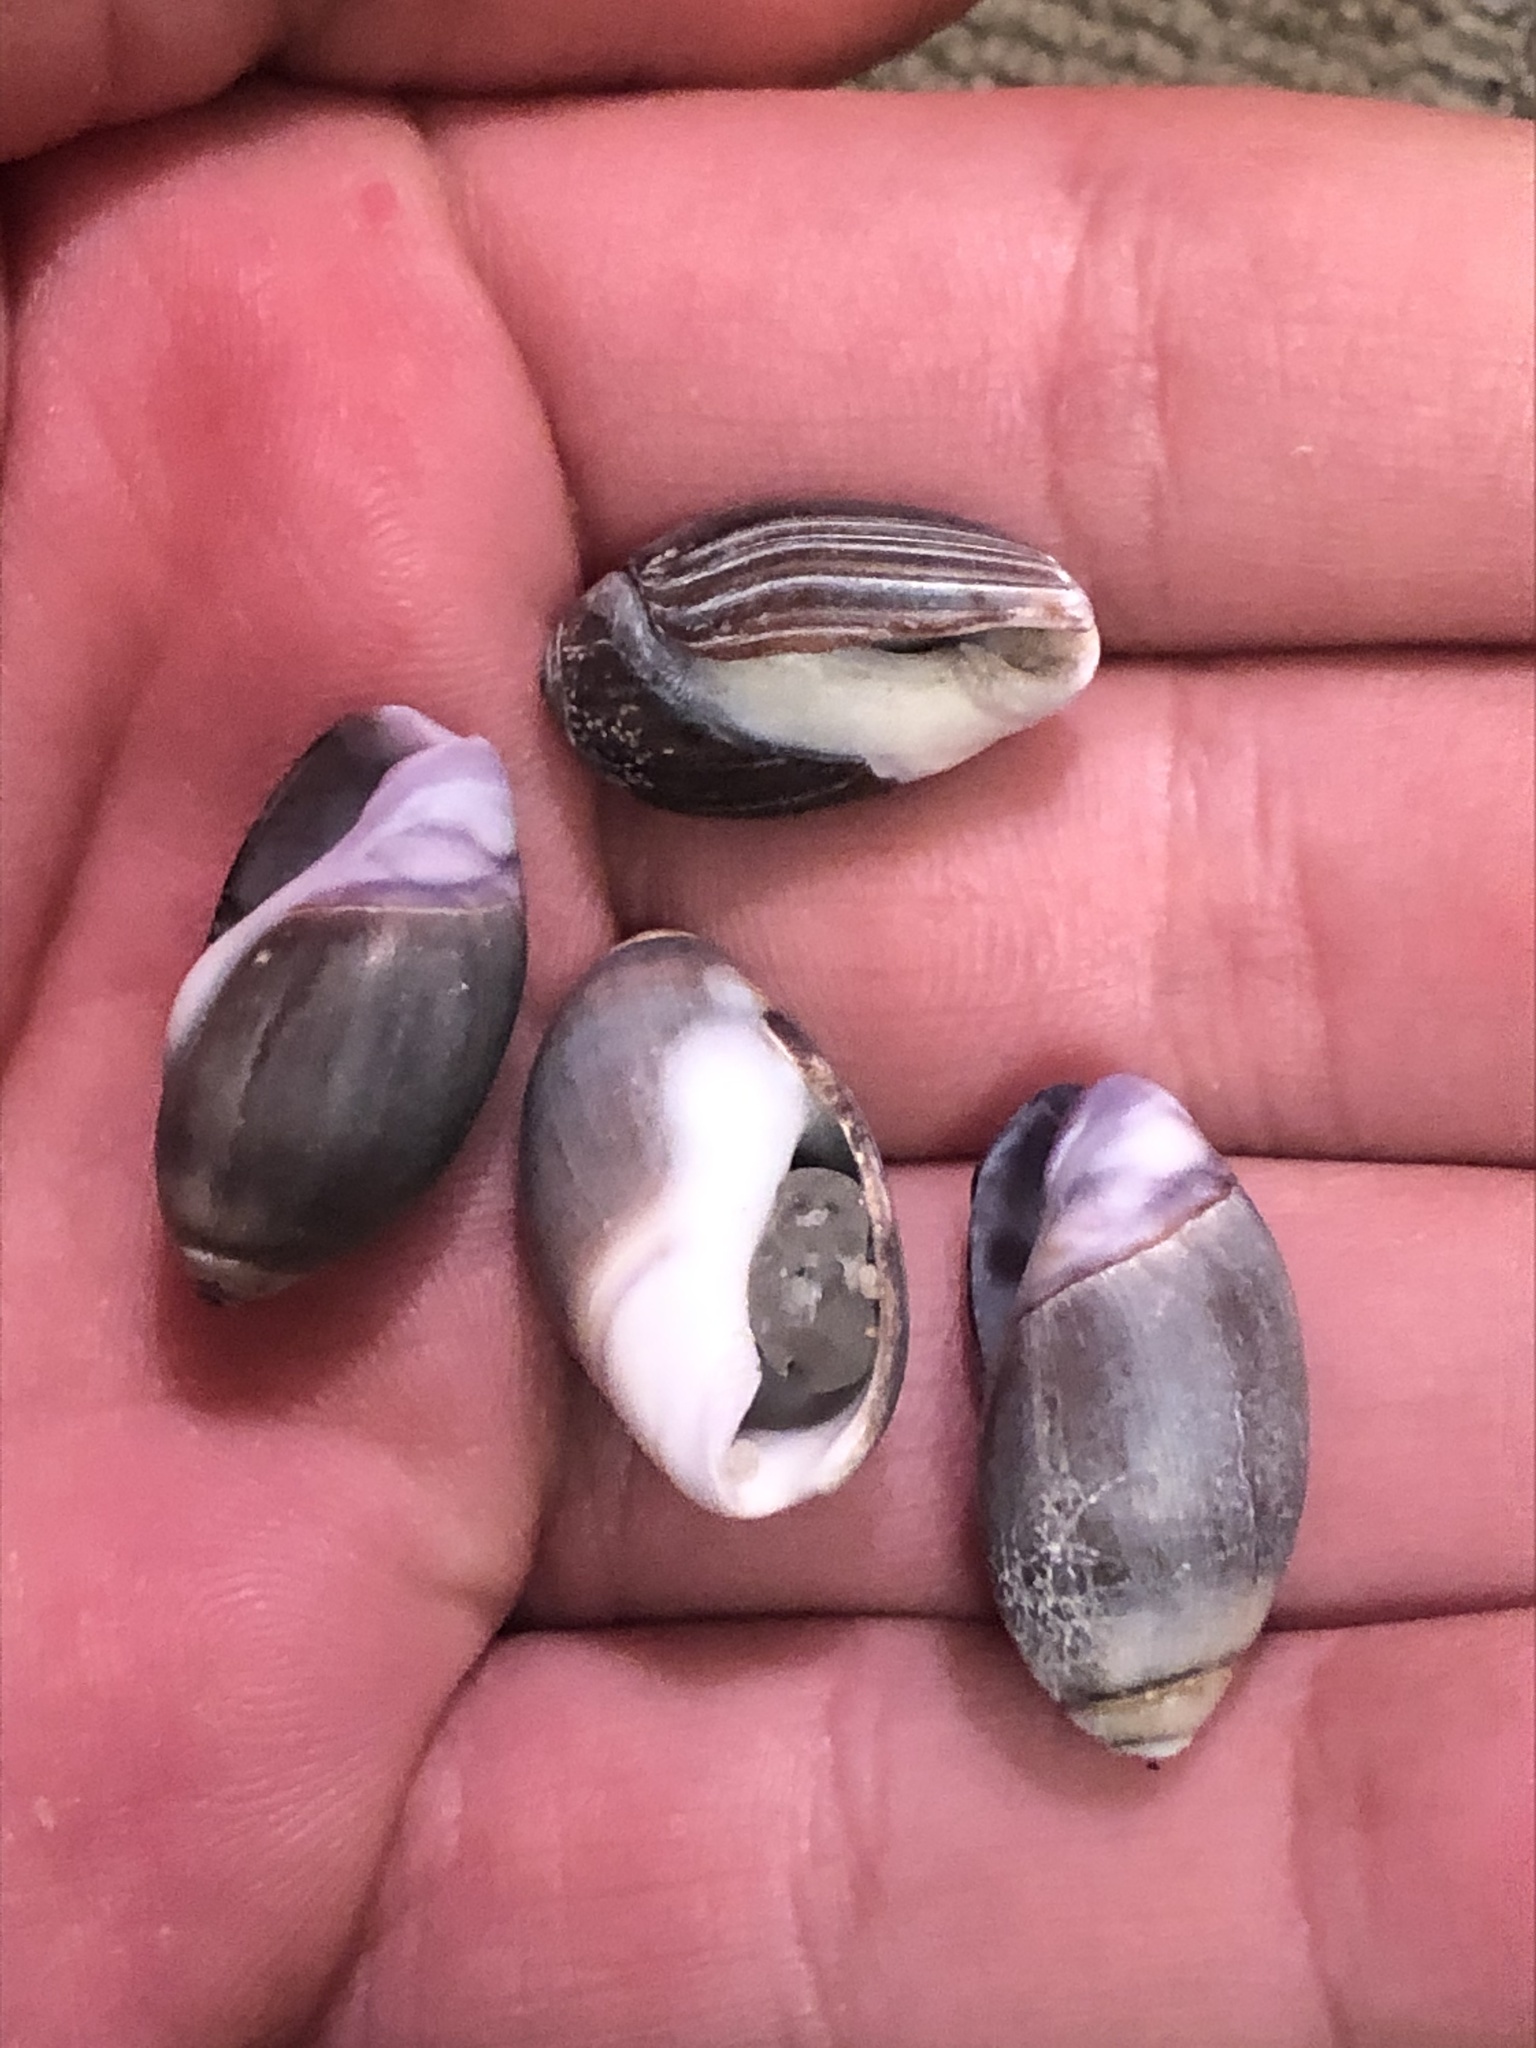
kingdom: Animalia
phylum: Mollusca
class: Gastropoda
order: Neogastropoda
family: Olividae
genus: Callianax
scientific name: Callianax biplicata
